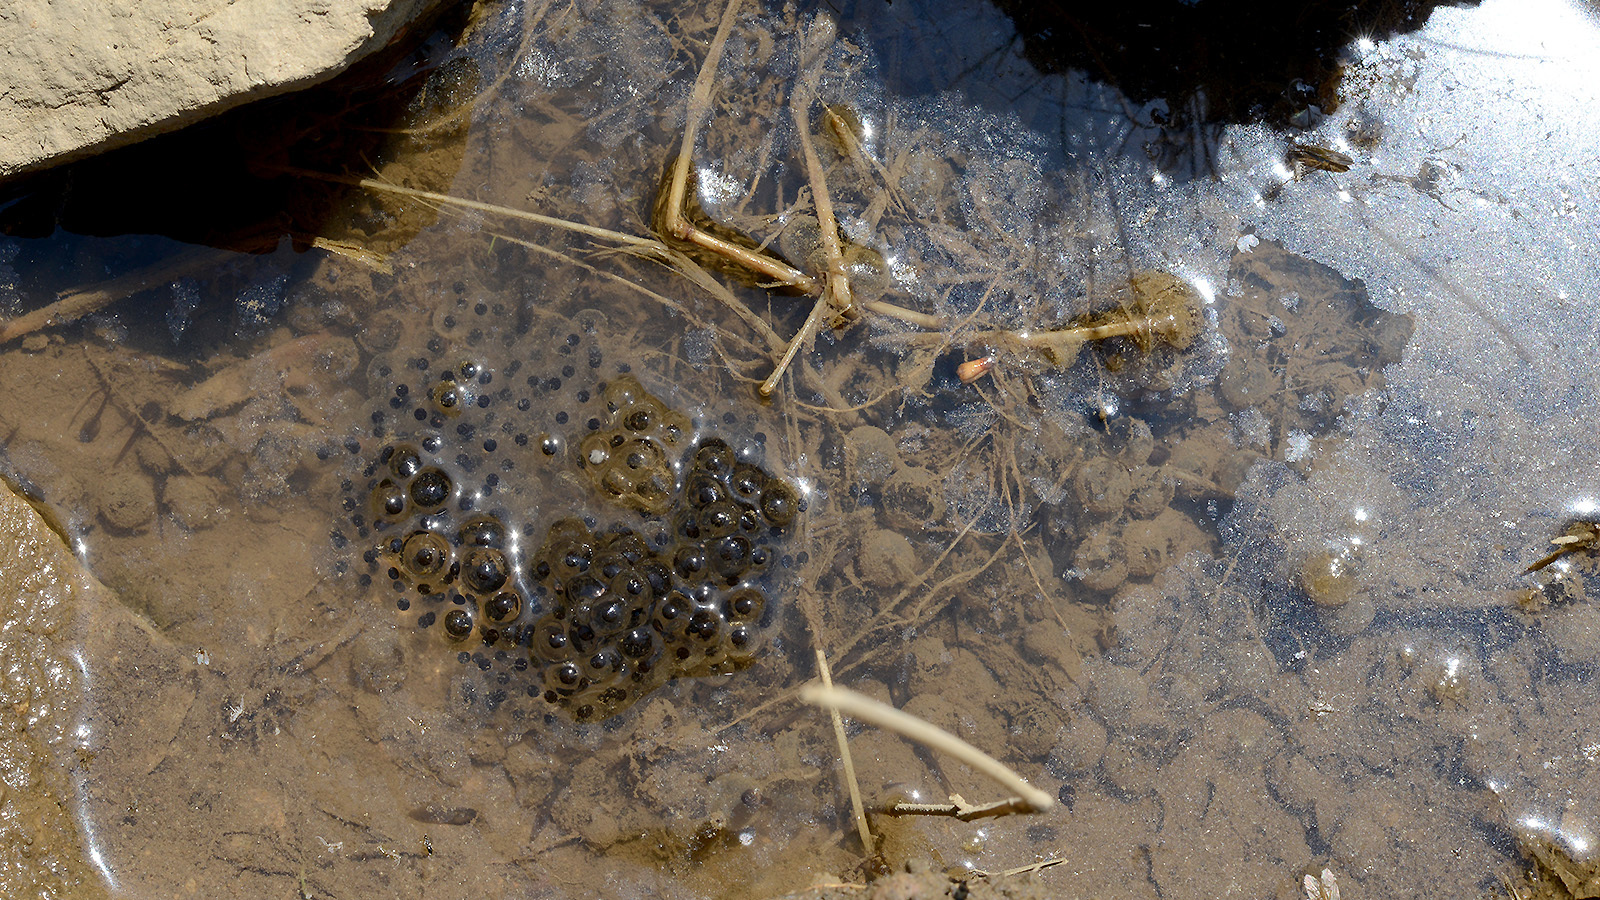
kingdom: Animalia
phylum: Chordata
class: Amphibia
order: Anura
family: Ranidae
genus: Rana
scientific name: Rana huanrenensis
